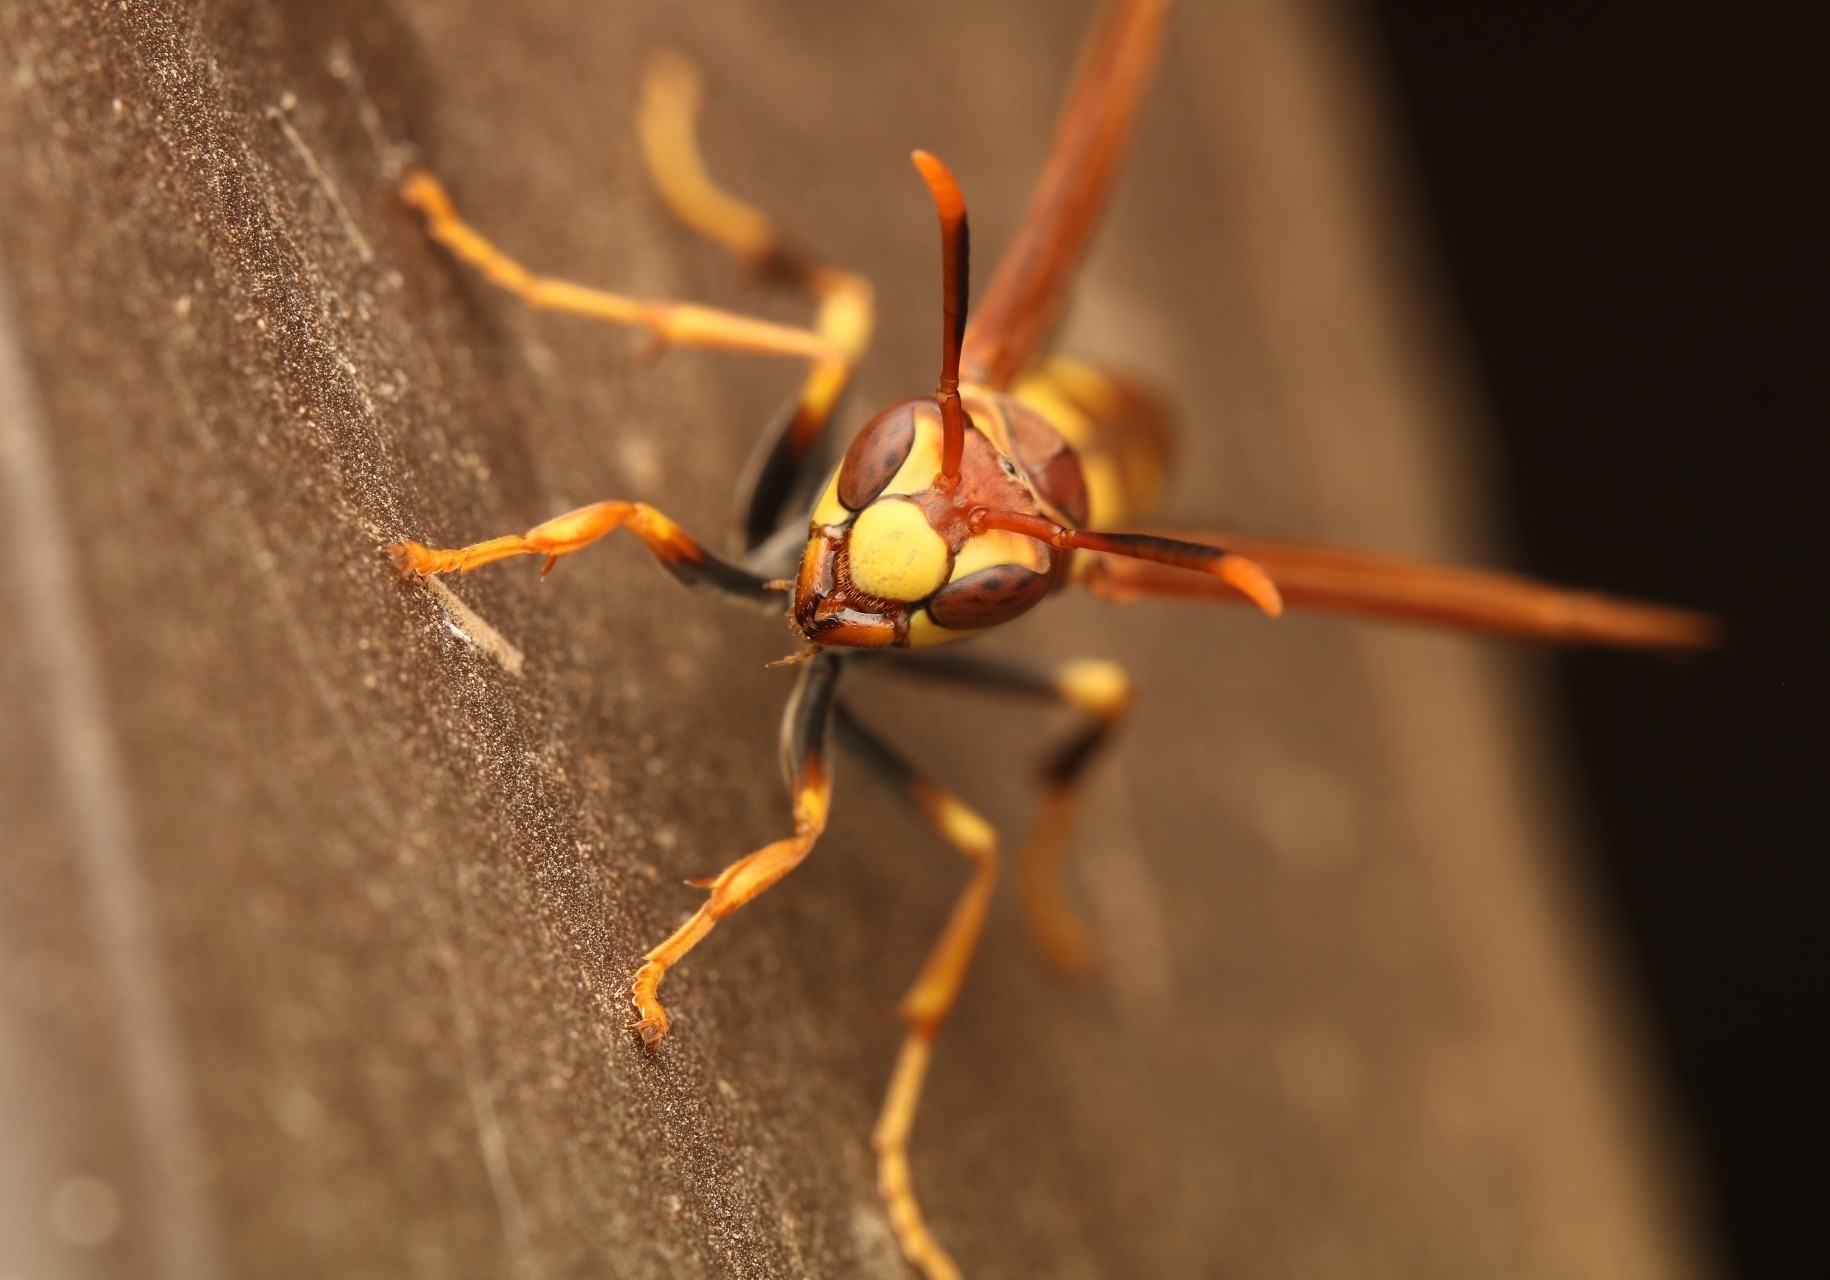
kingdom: Animalia
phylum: Arthropoda
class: Insecta
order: Hymenoptera
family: Eumenidae
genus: Polistes
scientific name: Polistes myersi
